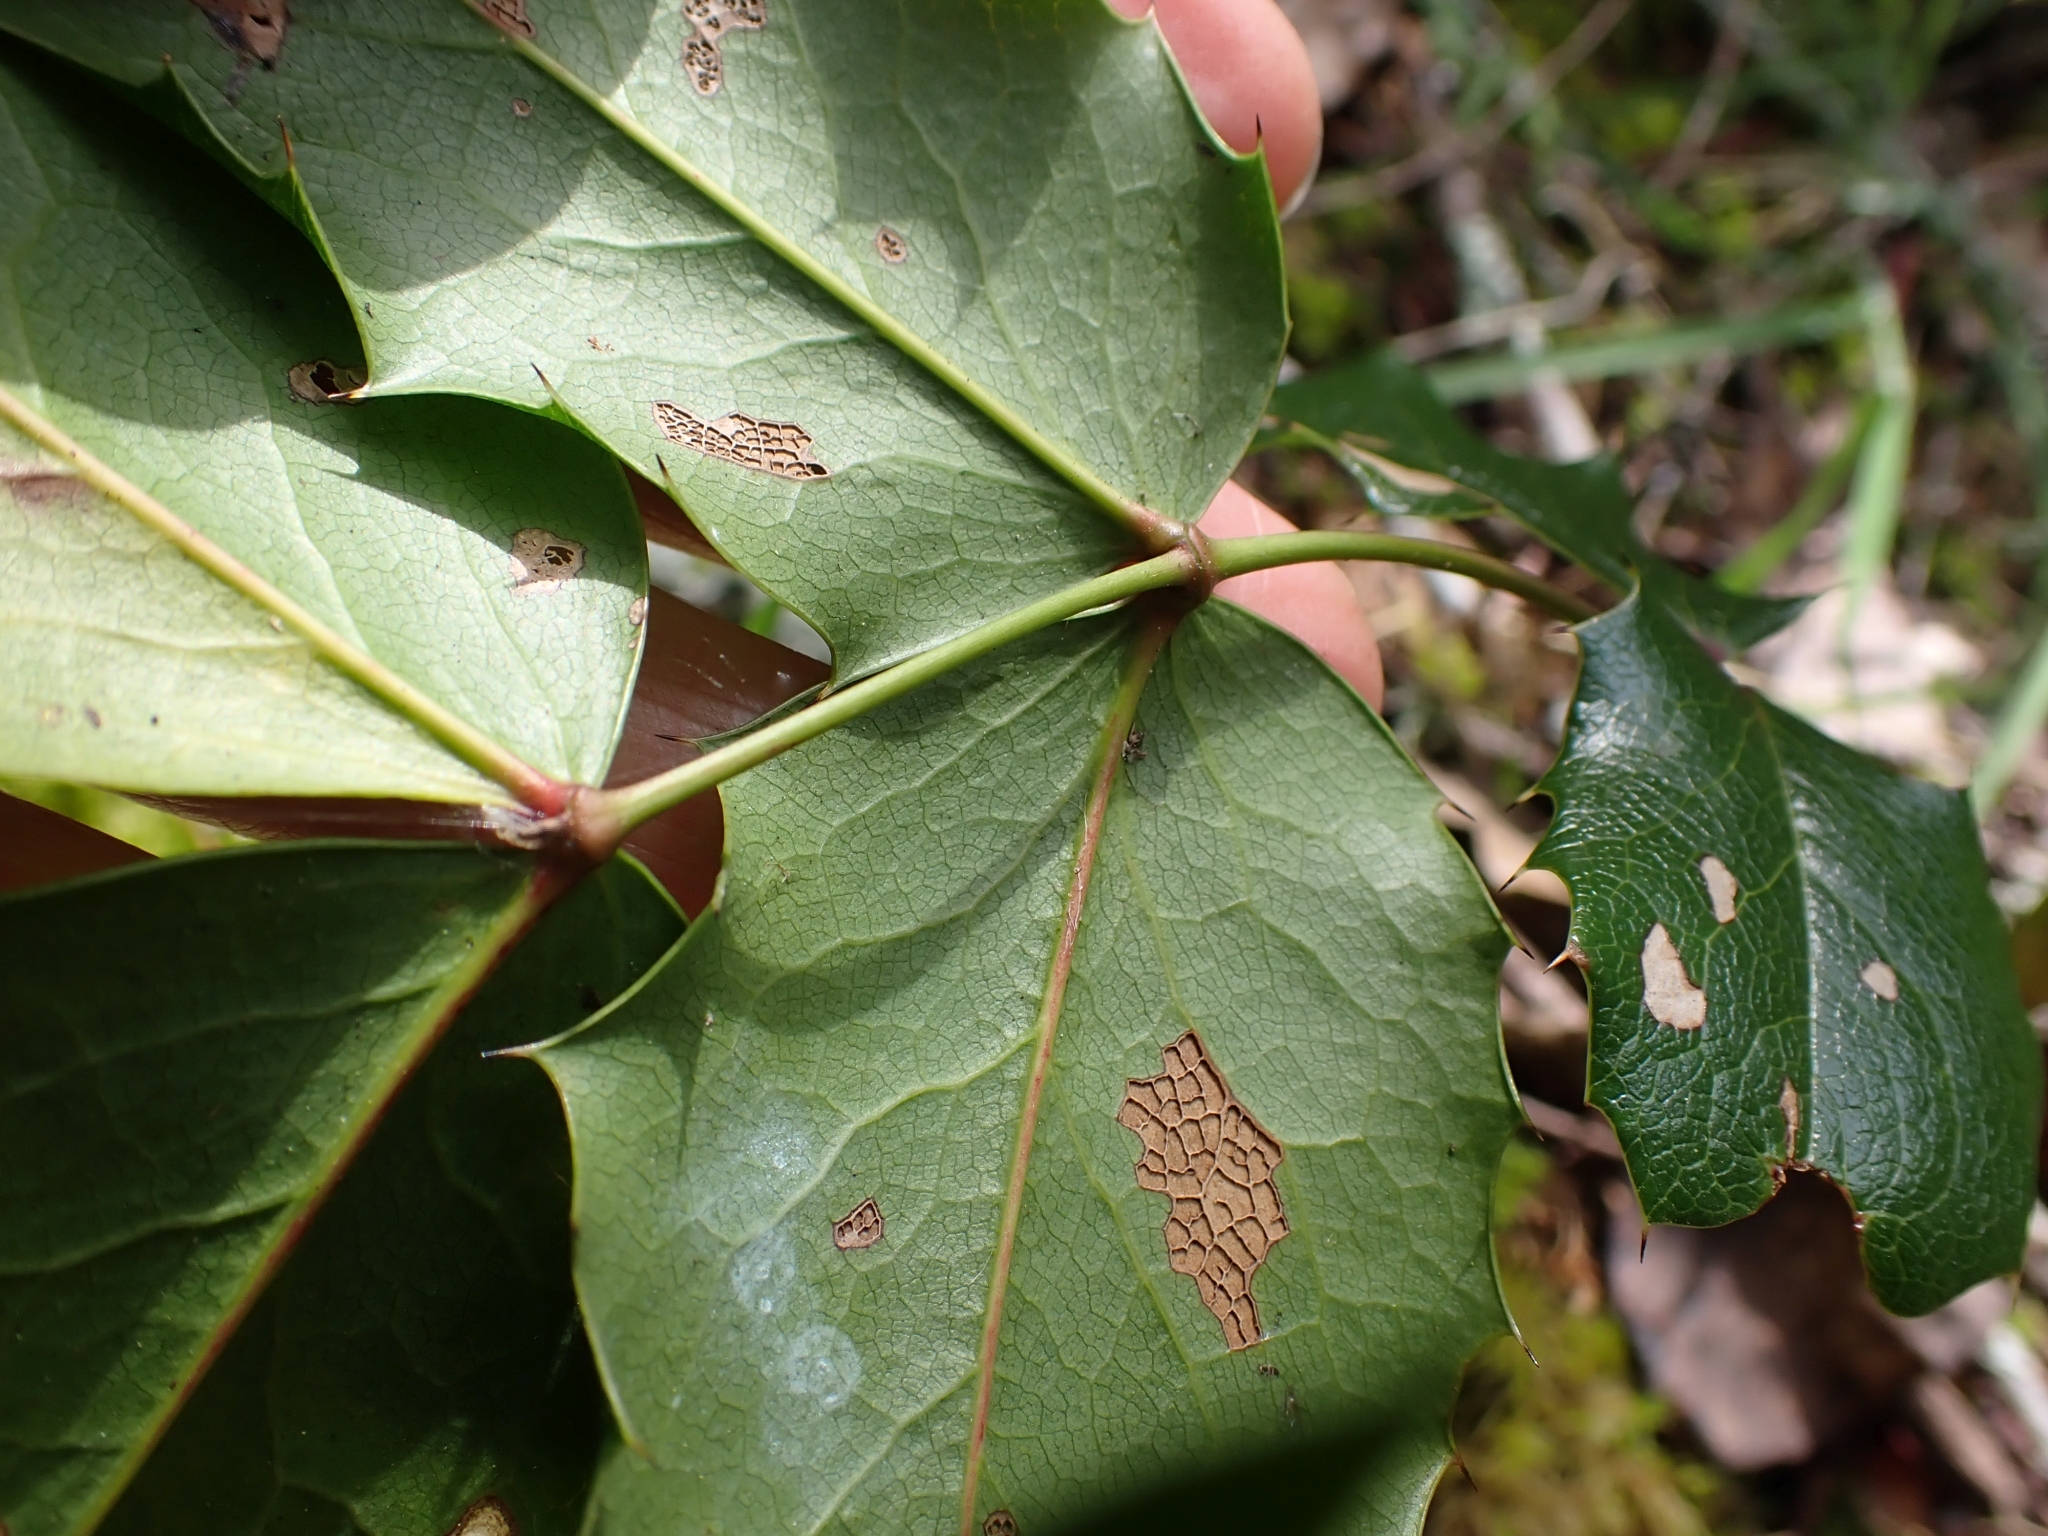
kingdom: Plantae
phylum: Tracheophyta
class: Magnoliopsida
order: Ranunculales
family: Berberidaceae
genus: Mahonia
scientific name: Mahonia aquifolium
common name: Oregon-grape
